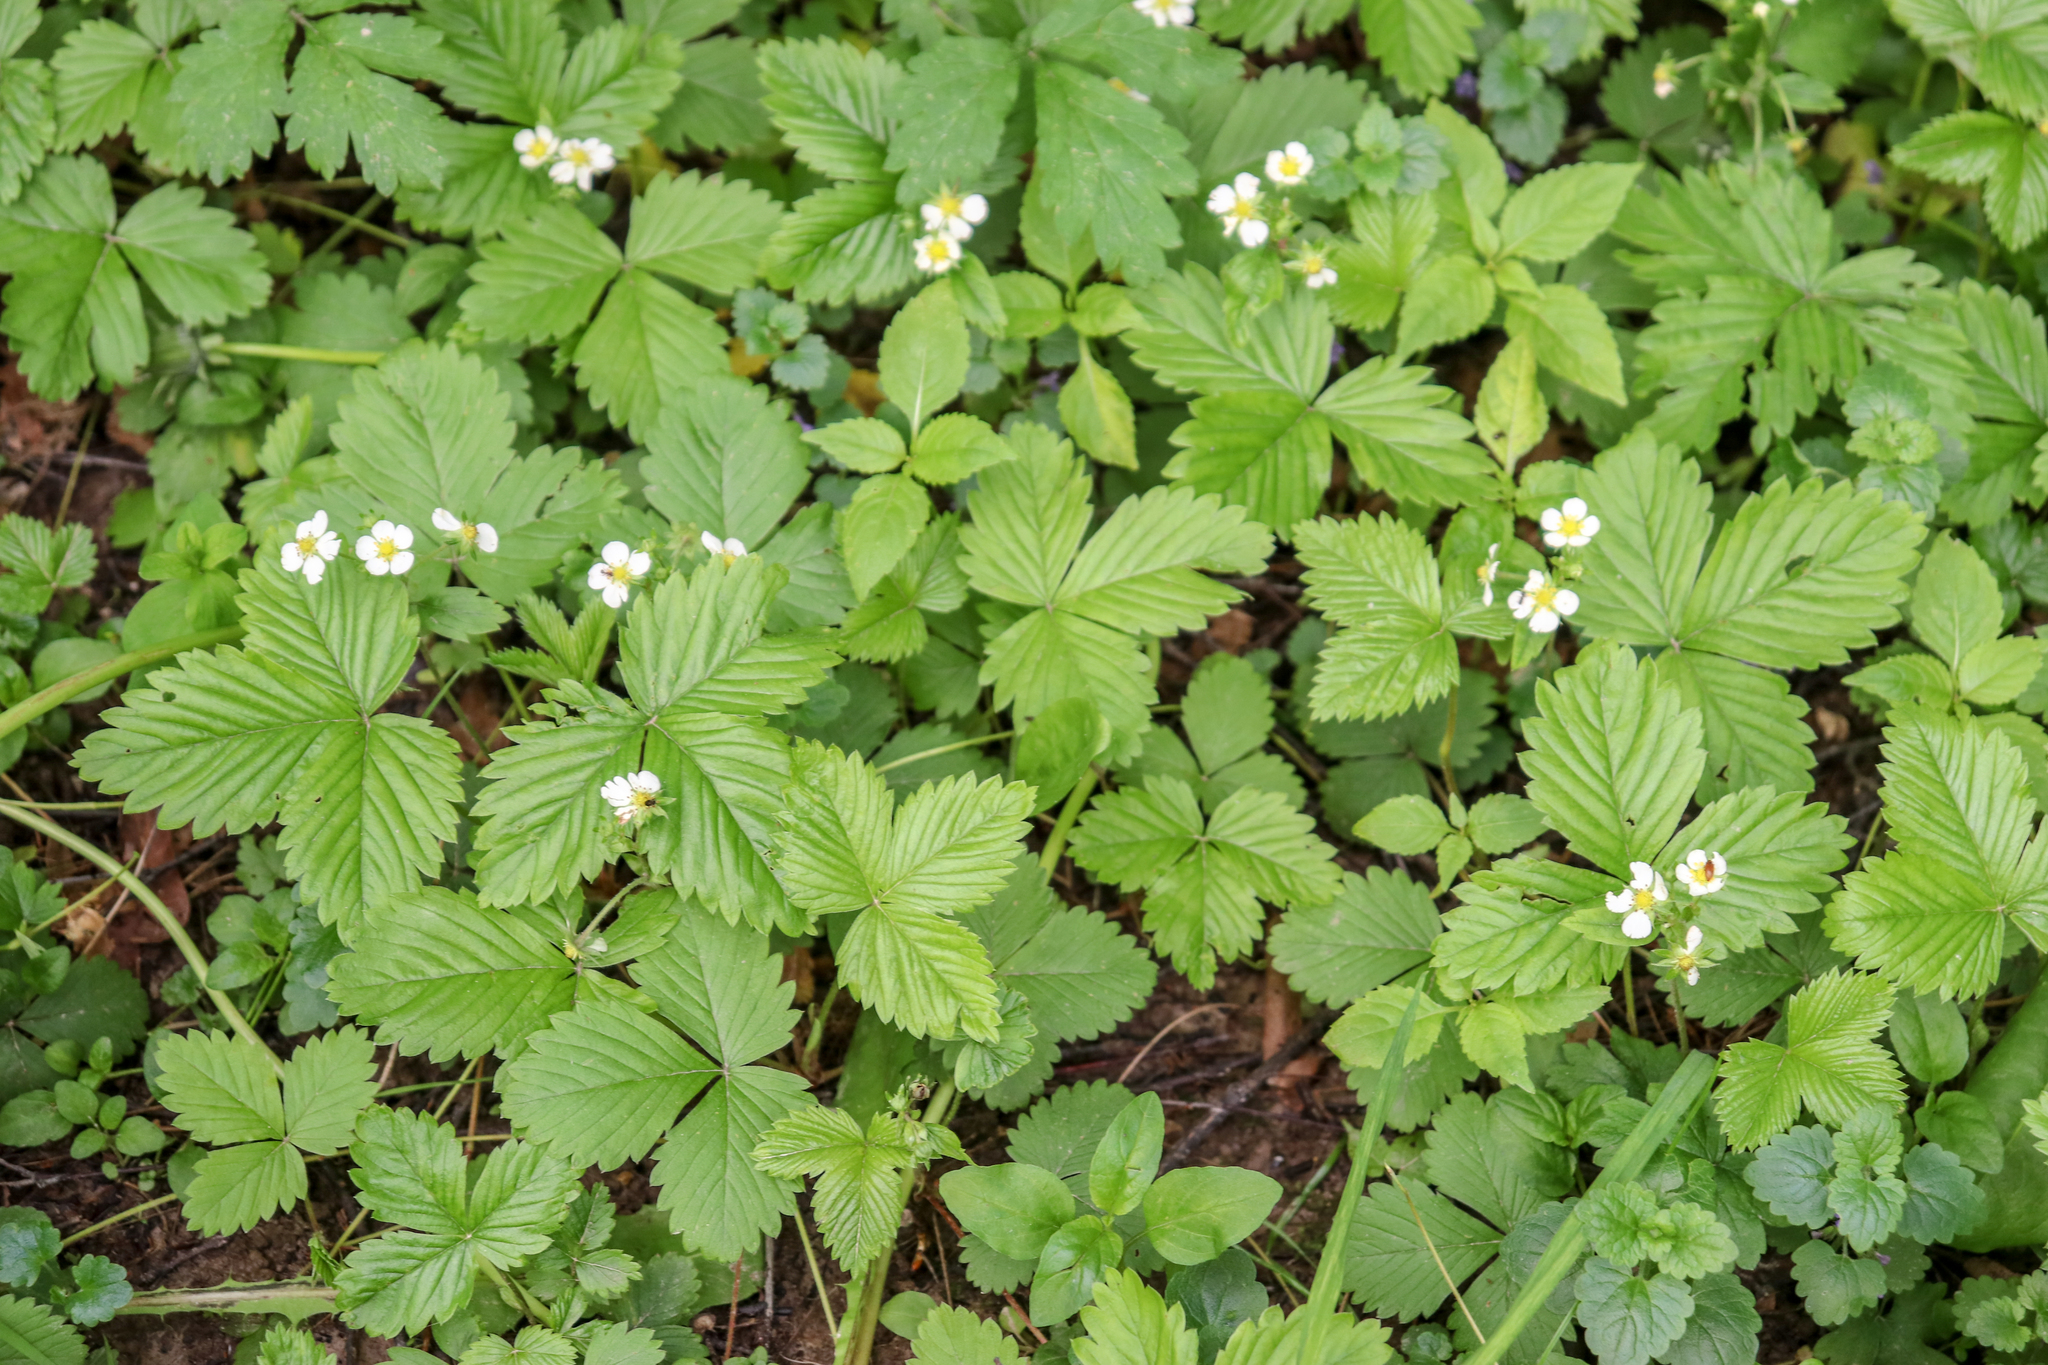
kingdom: Plantae
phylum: Tracheophyta
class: Magnoliopsida
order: Rosales
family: Rosaceae
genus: Fragaria
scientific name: Fragaria vesca
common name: Wild strawberry
